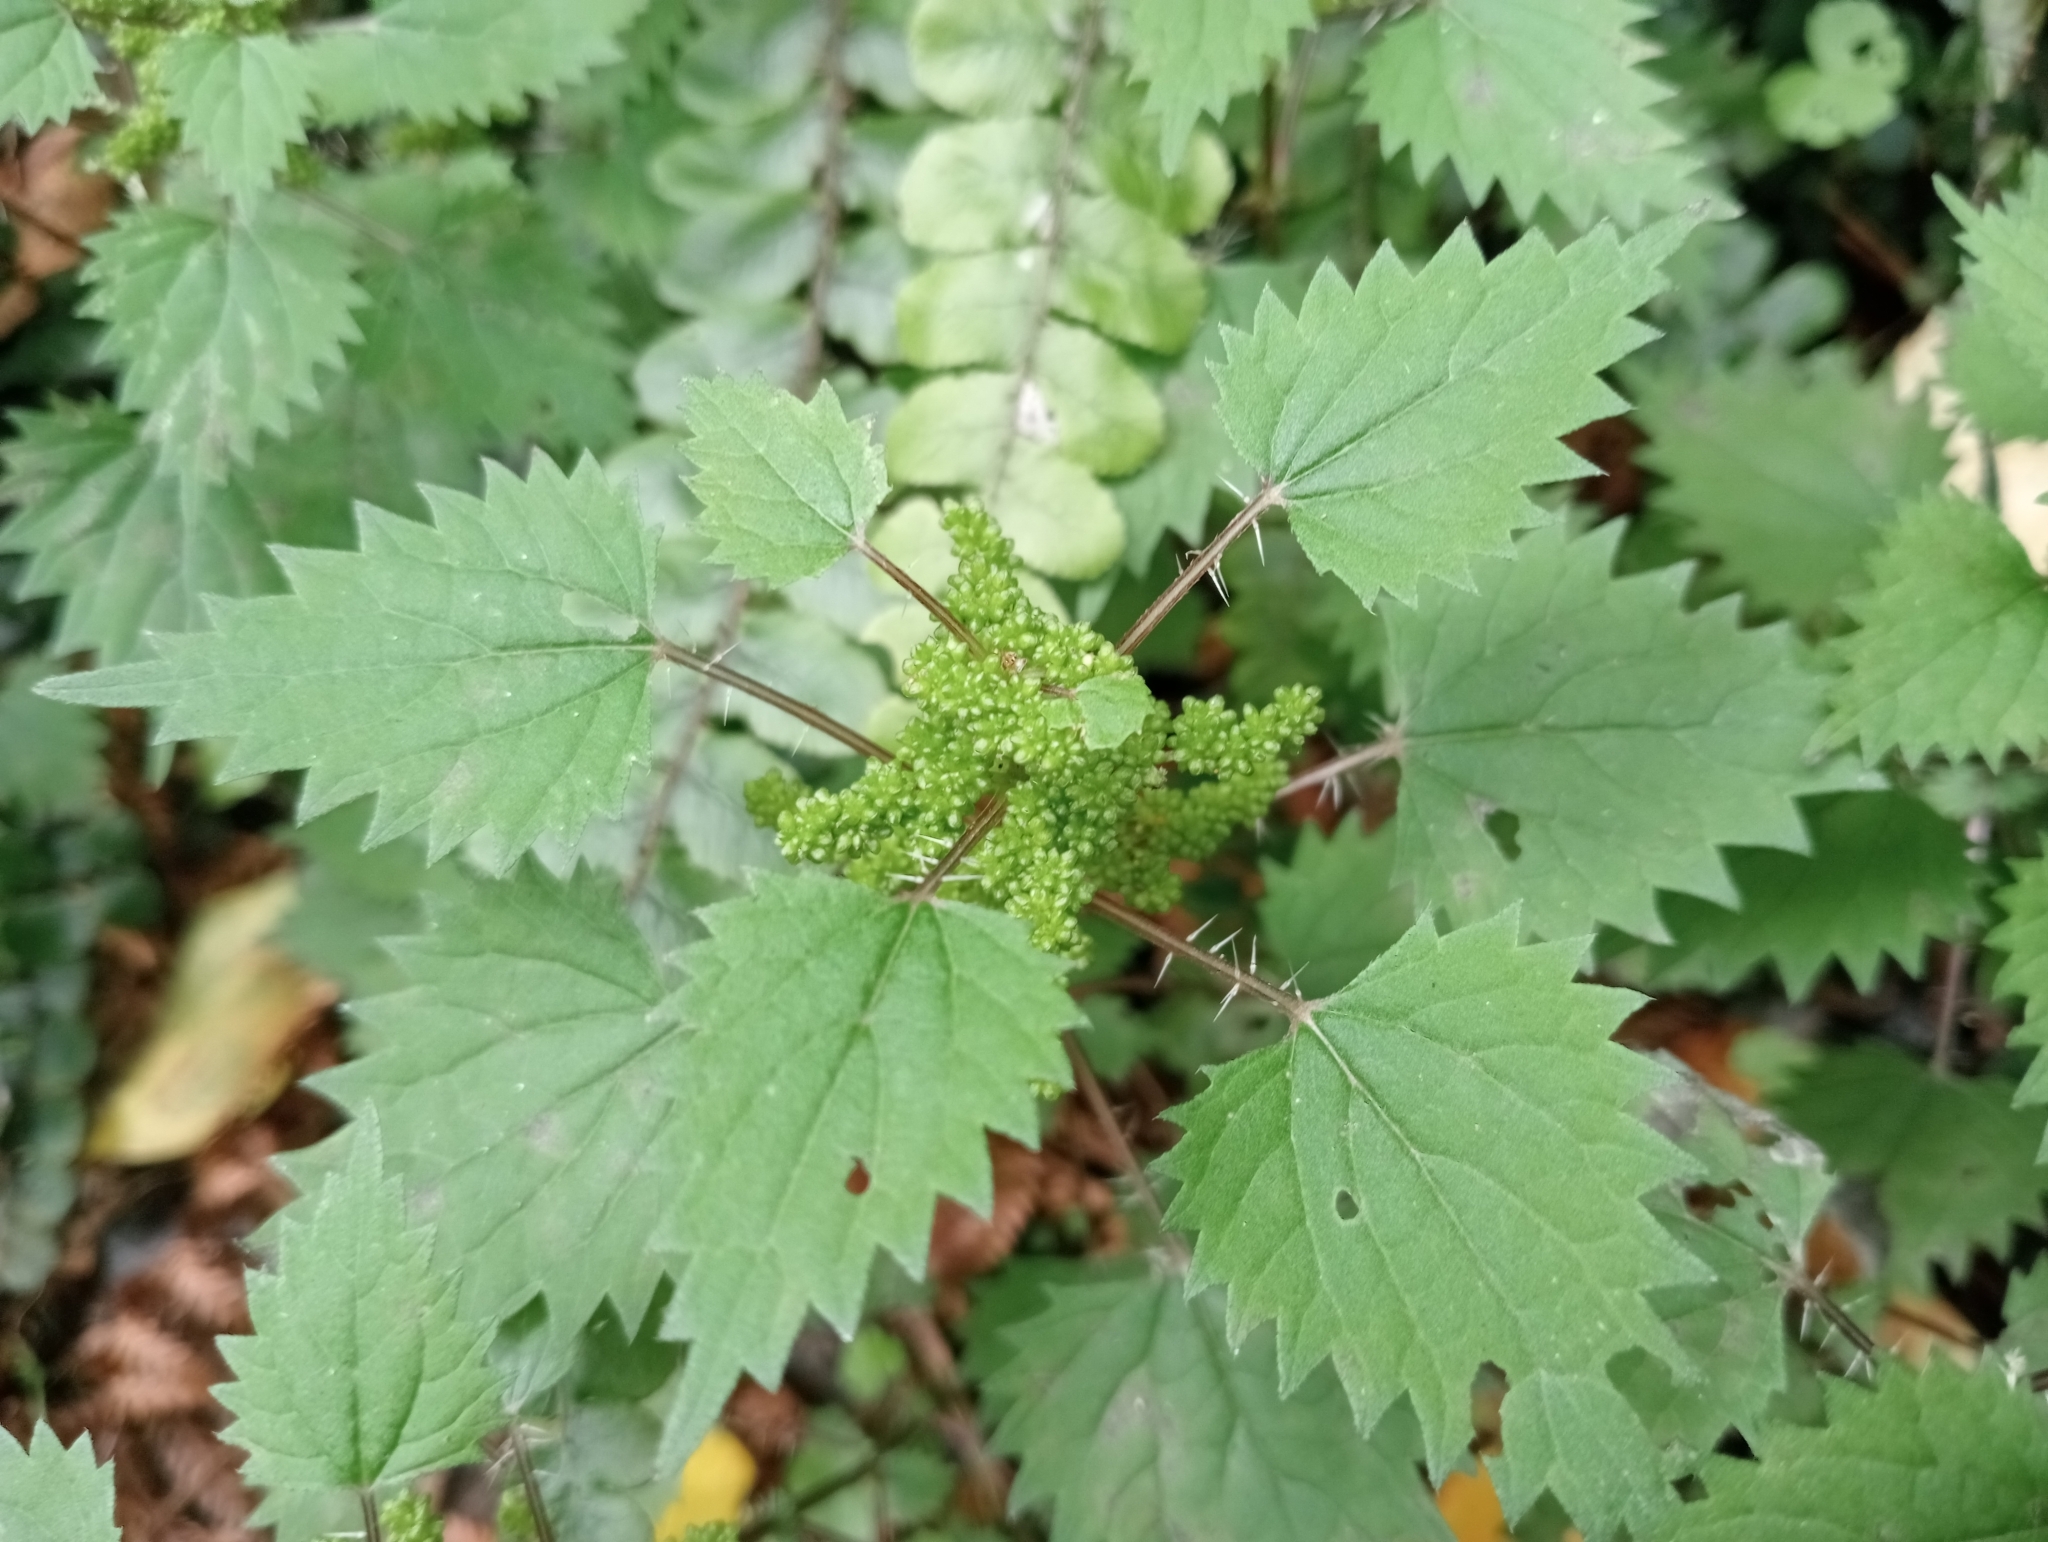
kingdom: Plantae
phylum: Tracheophyta
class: Magnoliopsida
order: Rosales
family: Urticaceae
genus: Urtica
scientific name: Urtica sykesii
